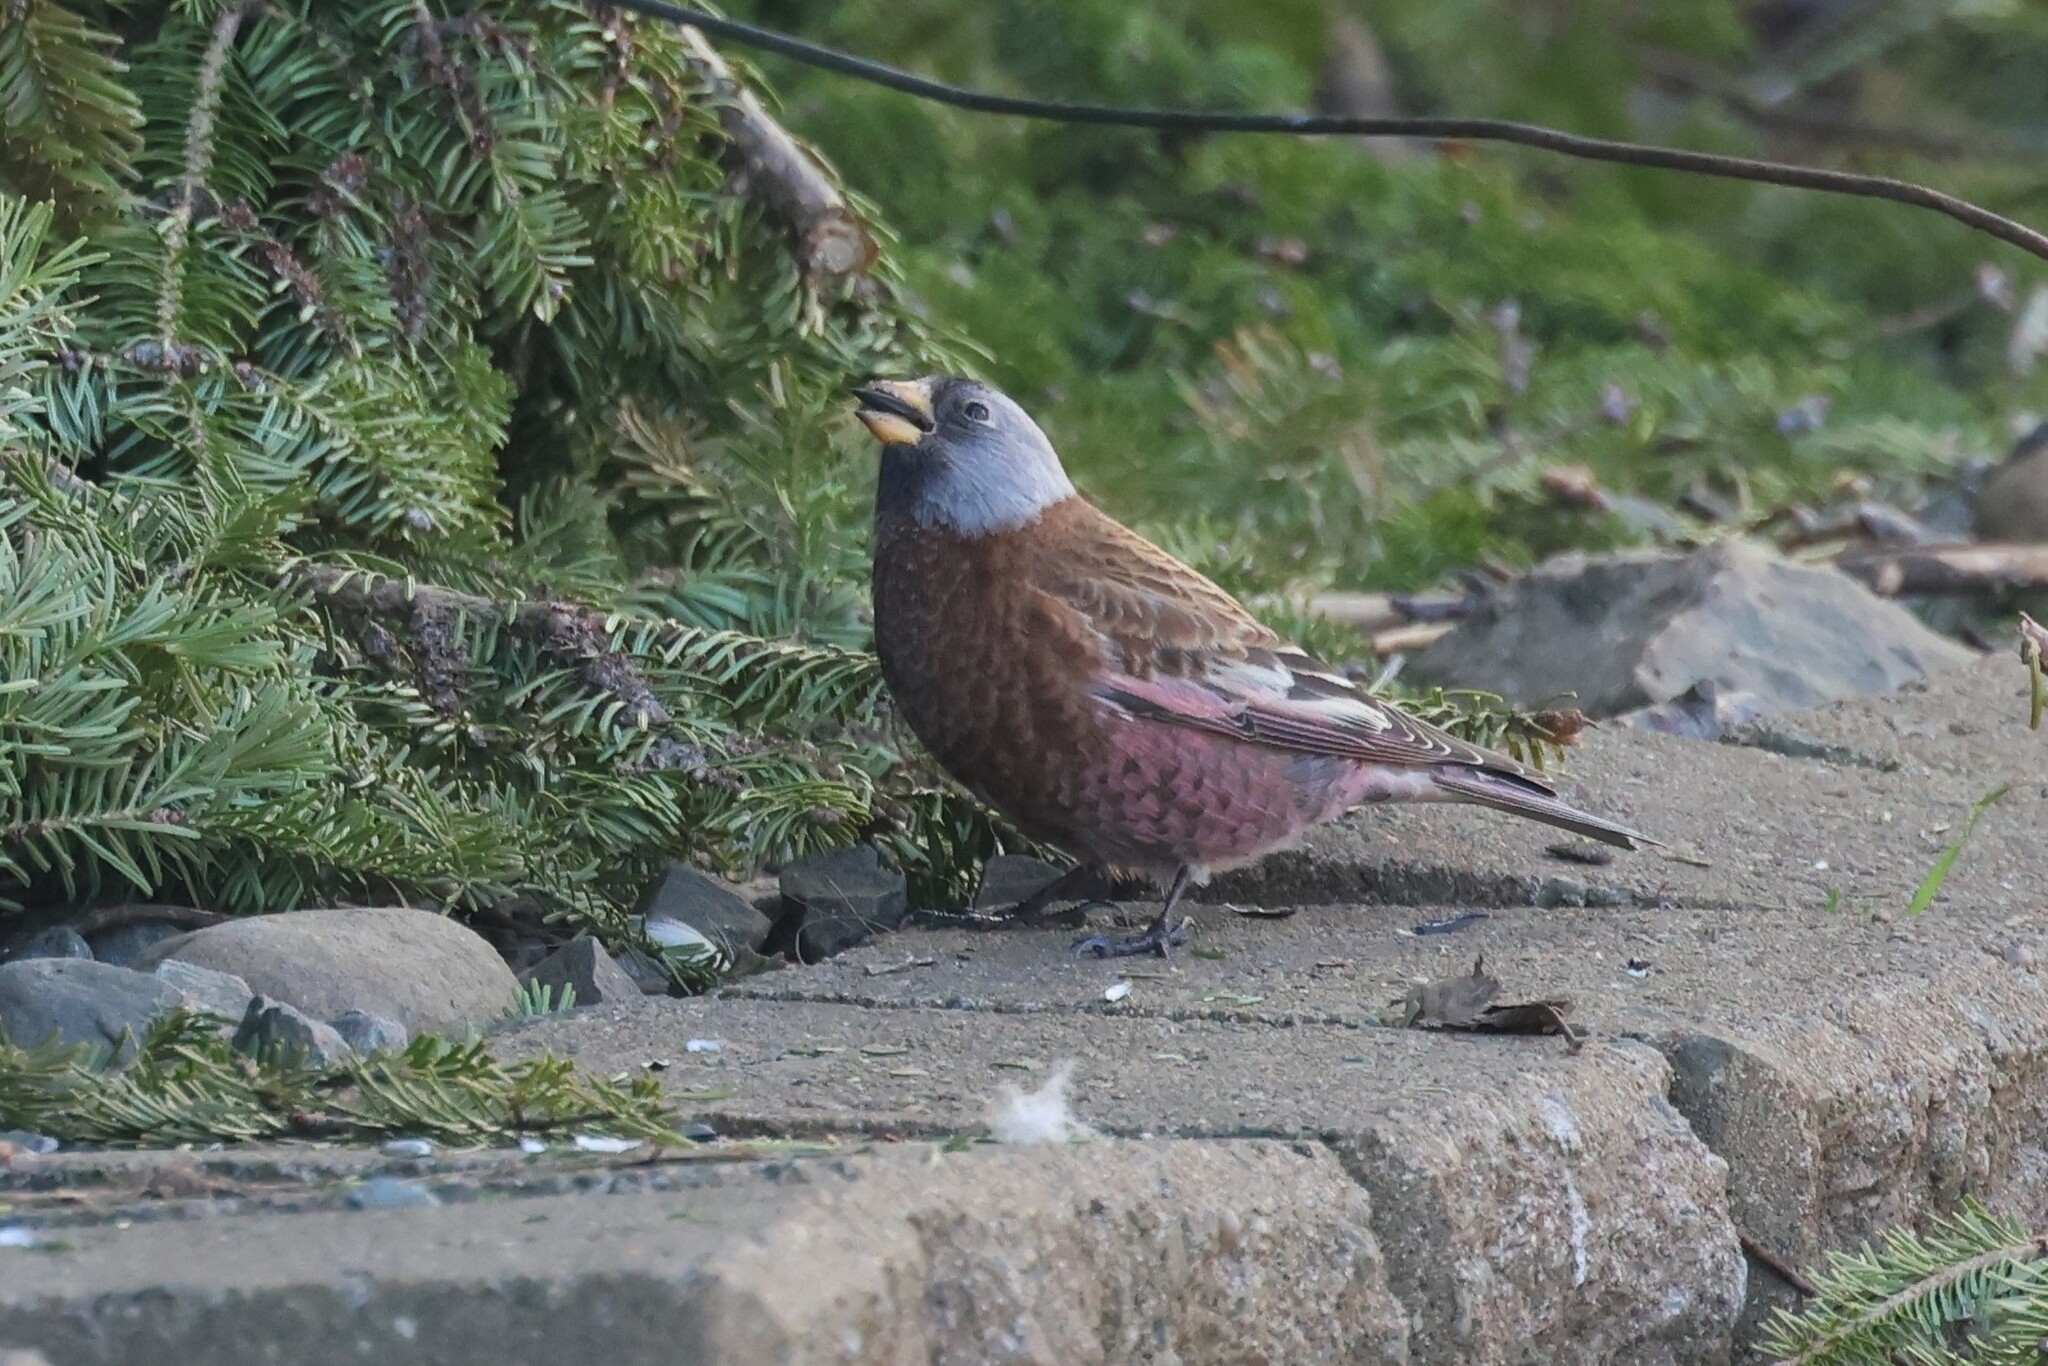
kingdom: Animalia
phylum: Chordata
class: Aves
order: Passeriformes
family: Fringillidae
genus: Leucosticte
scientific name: Leucosticte tephrocotis
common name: Gray-crowned rosy-finch
